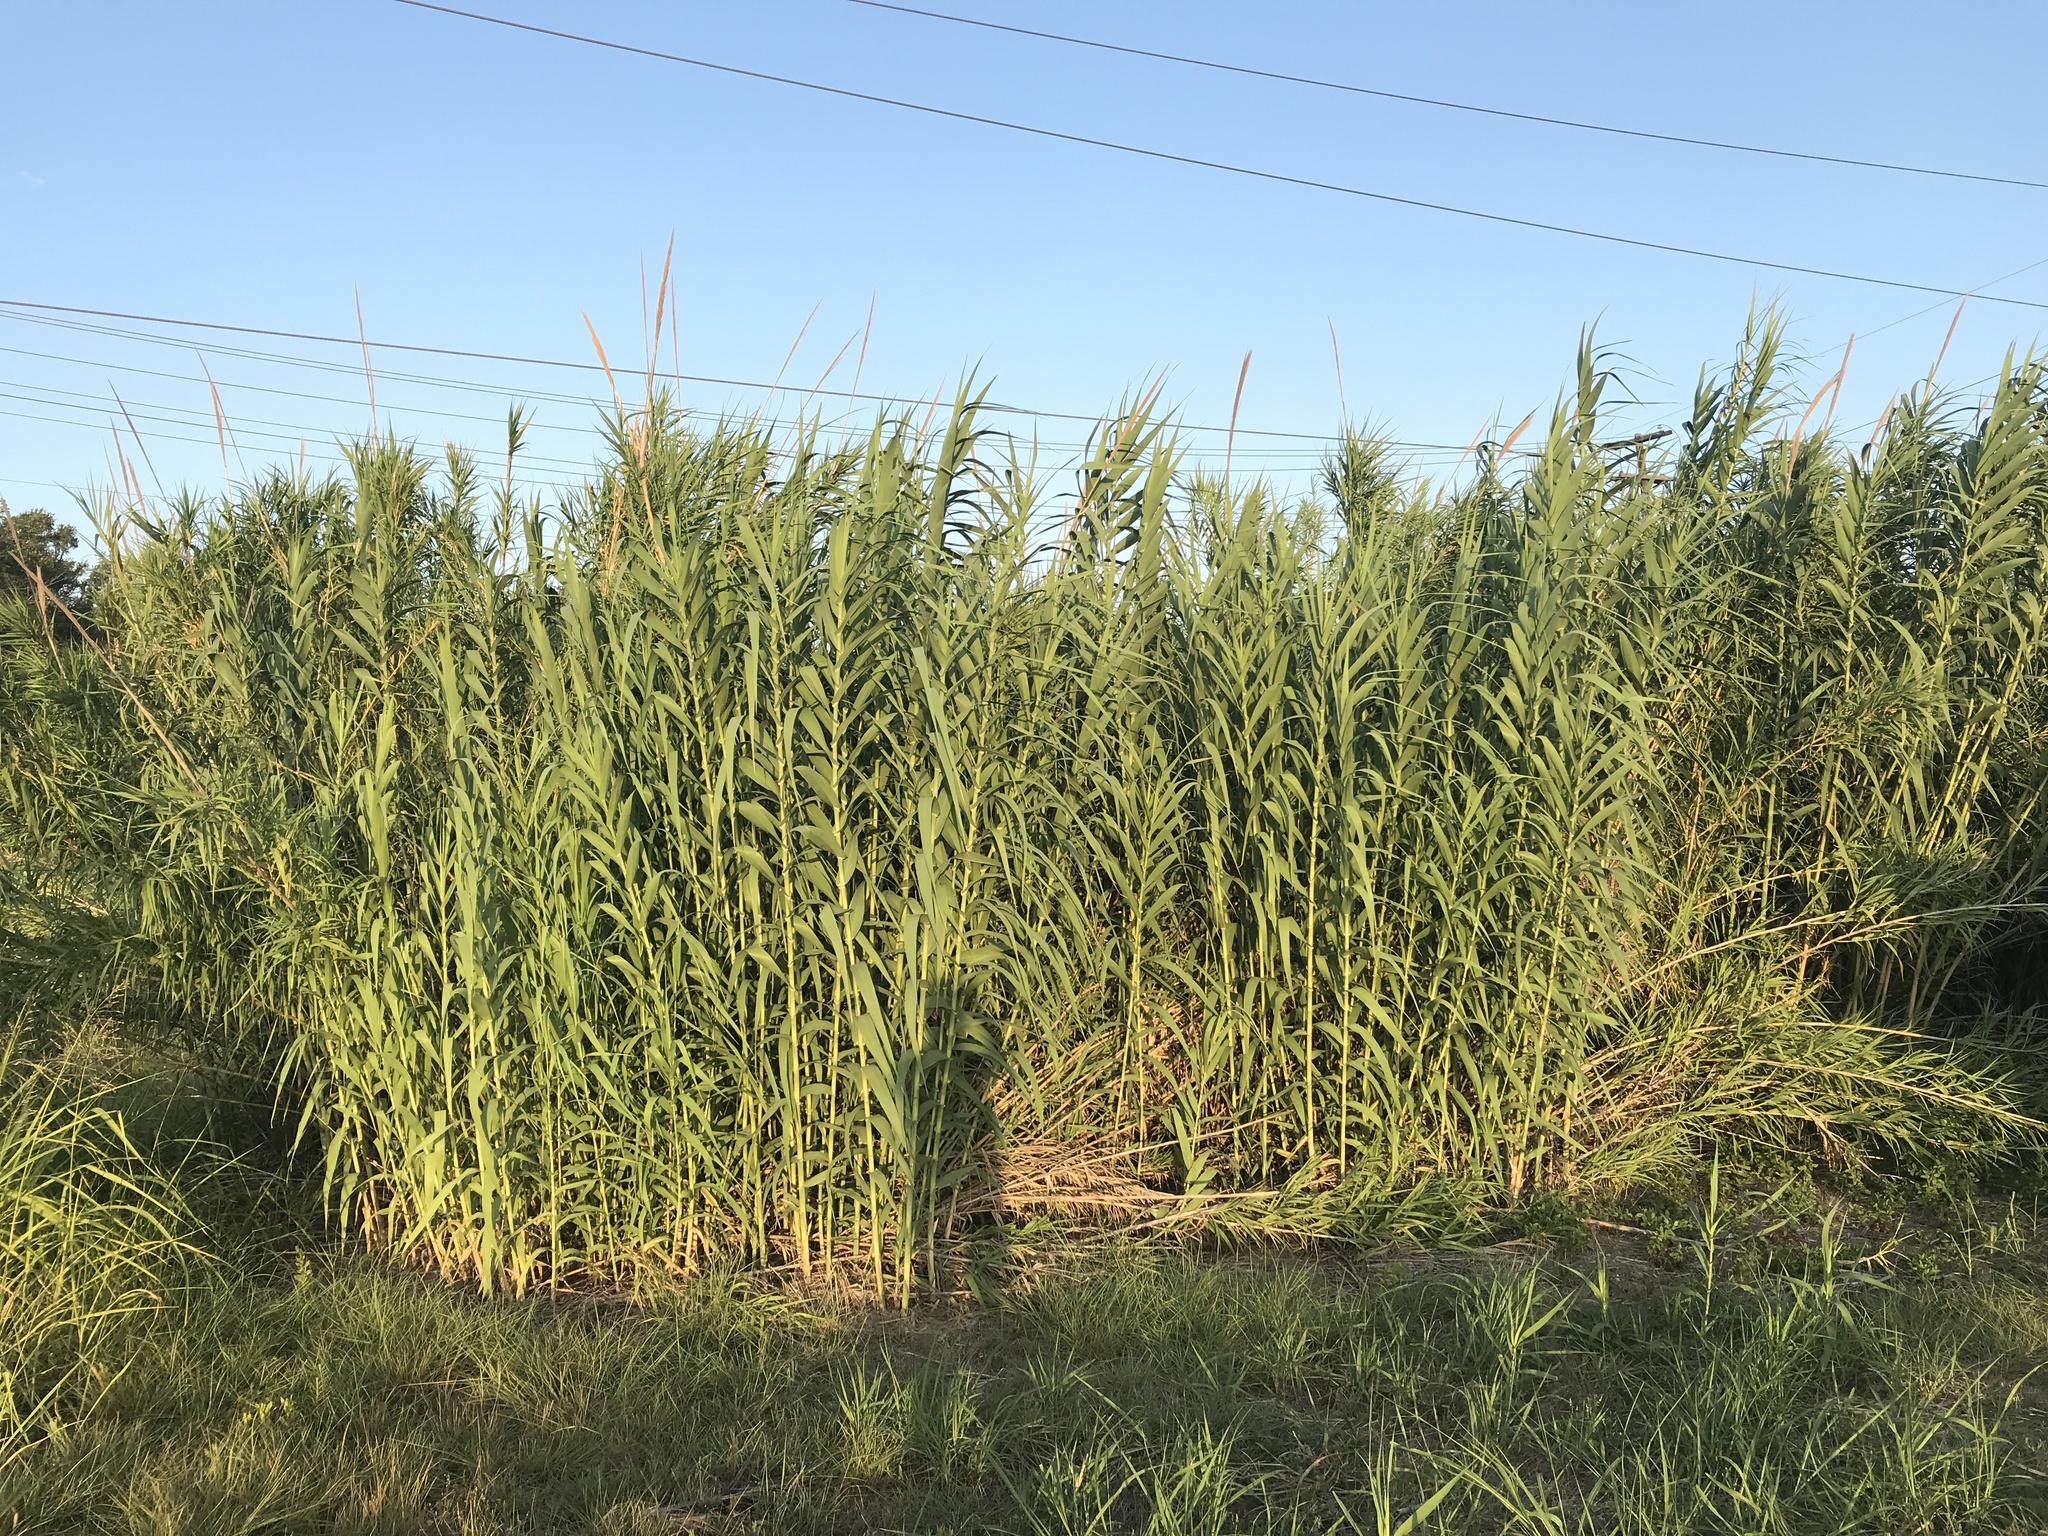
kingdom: Plantae
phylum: Tracheophyta
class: Liliopsida
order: Poales
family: Poaceae
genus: Arundo
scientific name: Arundo donax
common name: Giant reed
